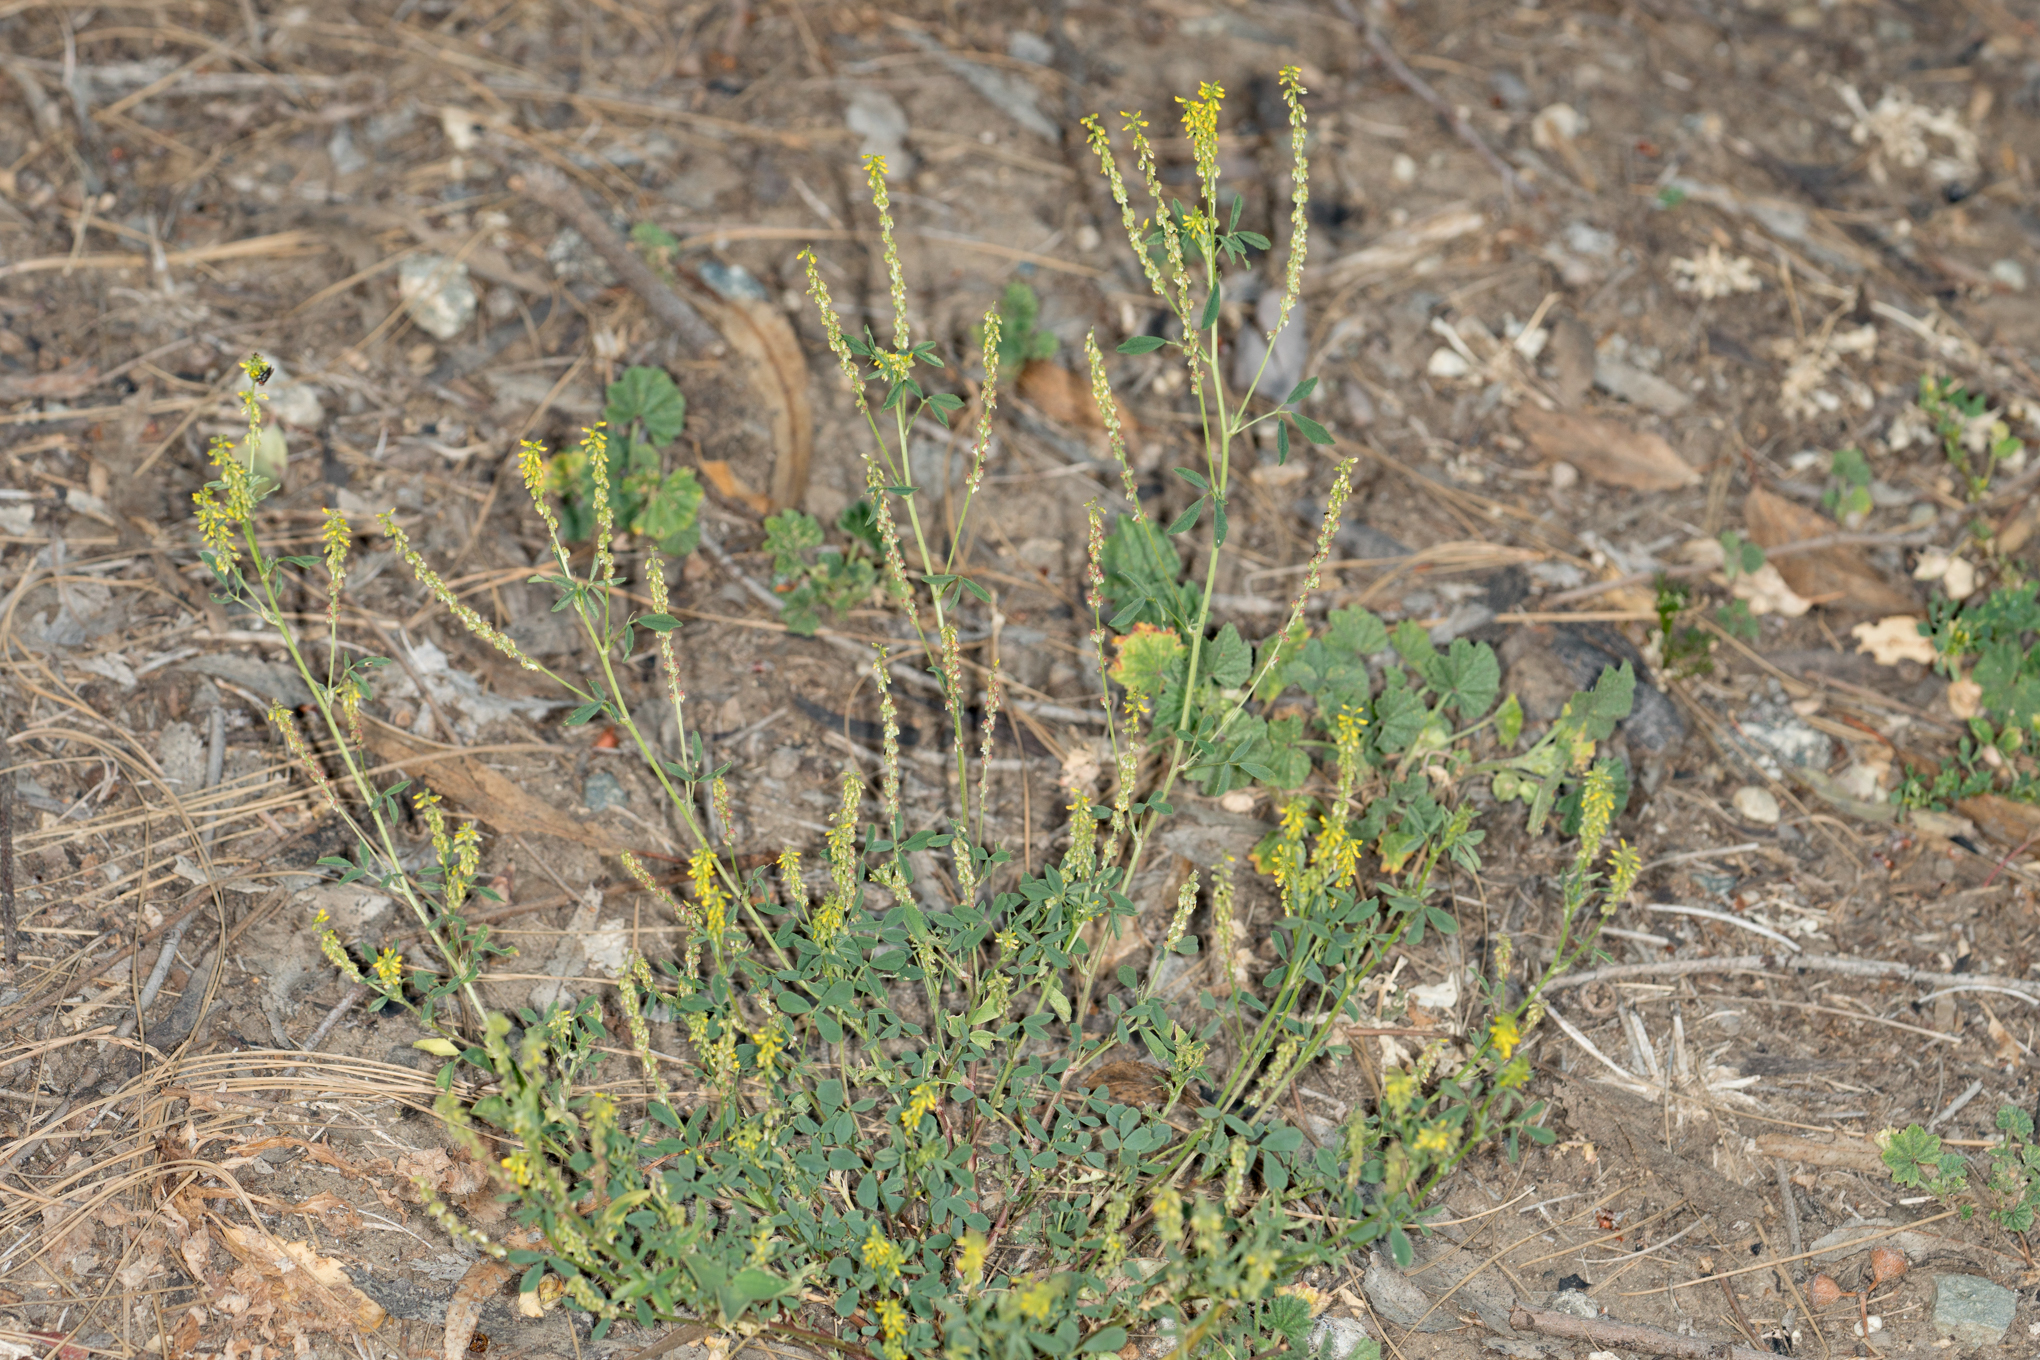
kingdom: Plantae
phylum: Tracheophyta
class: Magnoliopsida
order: Fabales
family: Fabaceae
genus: Melilotus
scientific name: Melilotus indicus
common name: Small melilot
